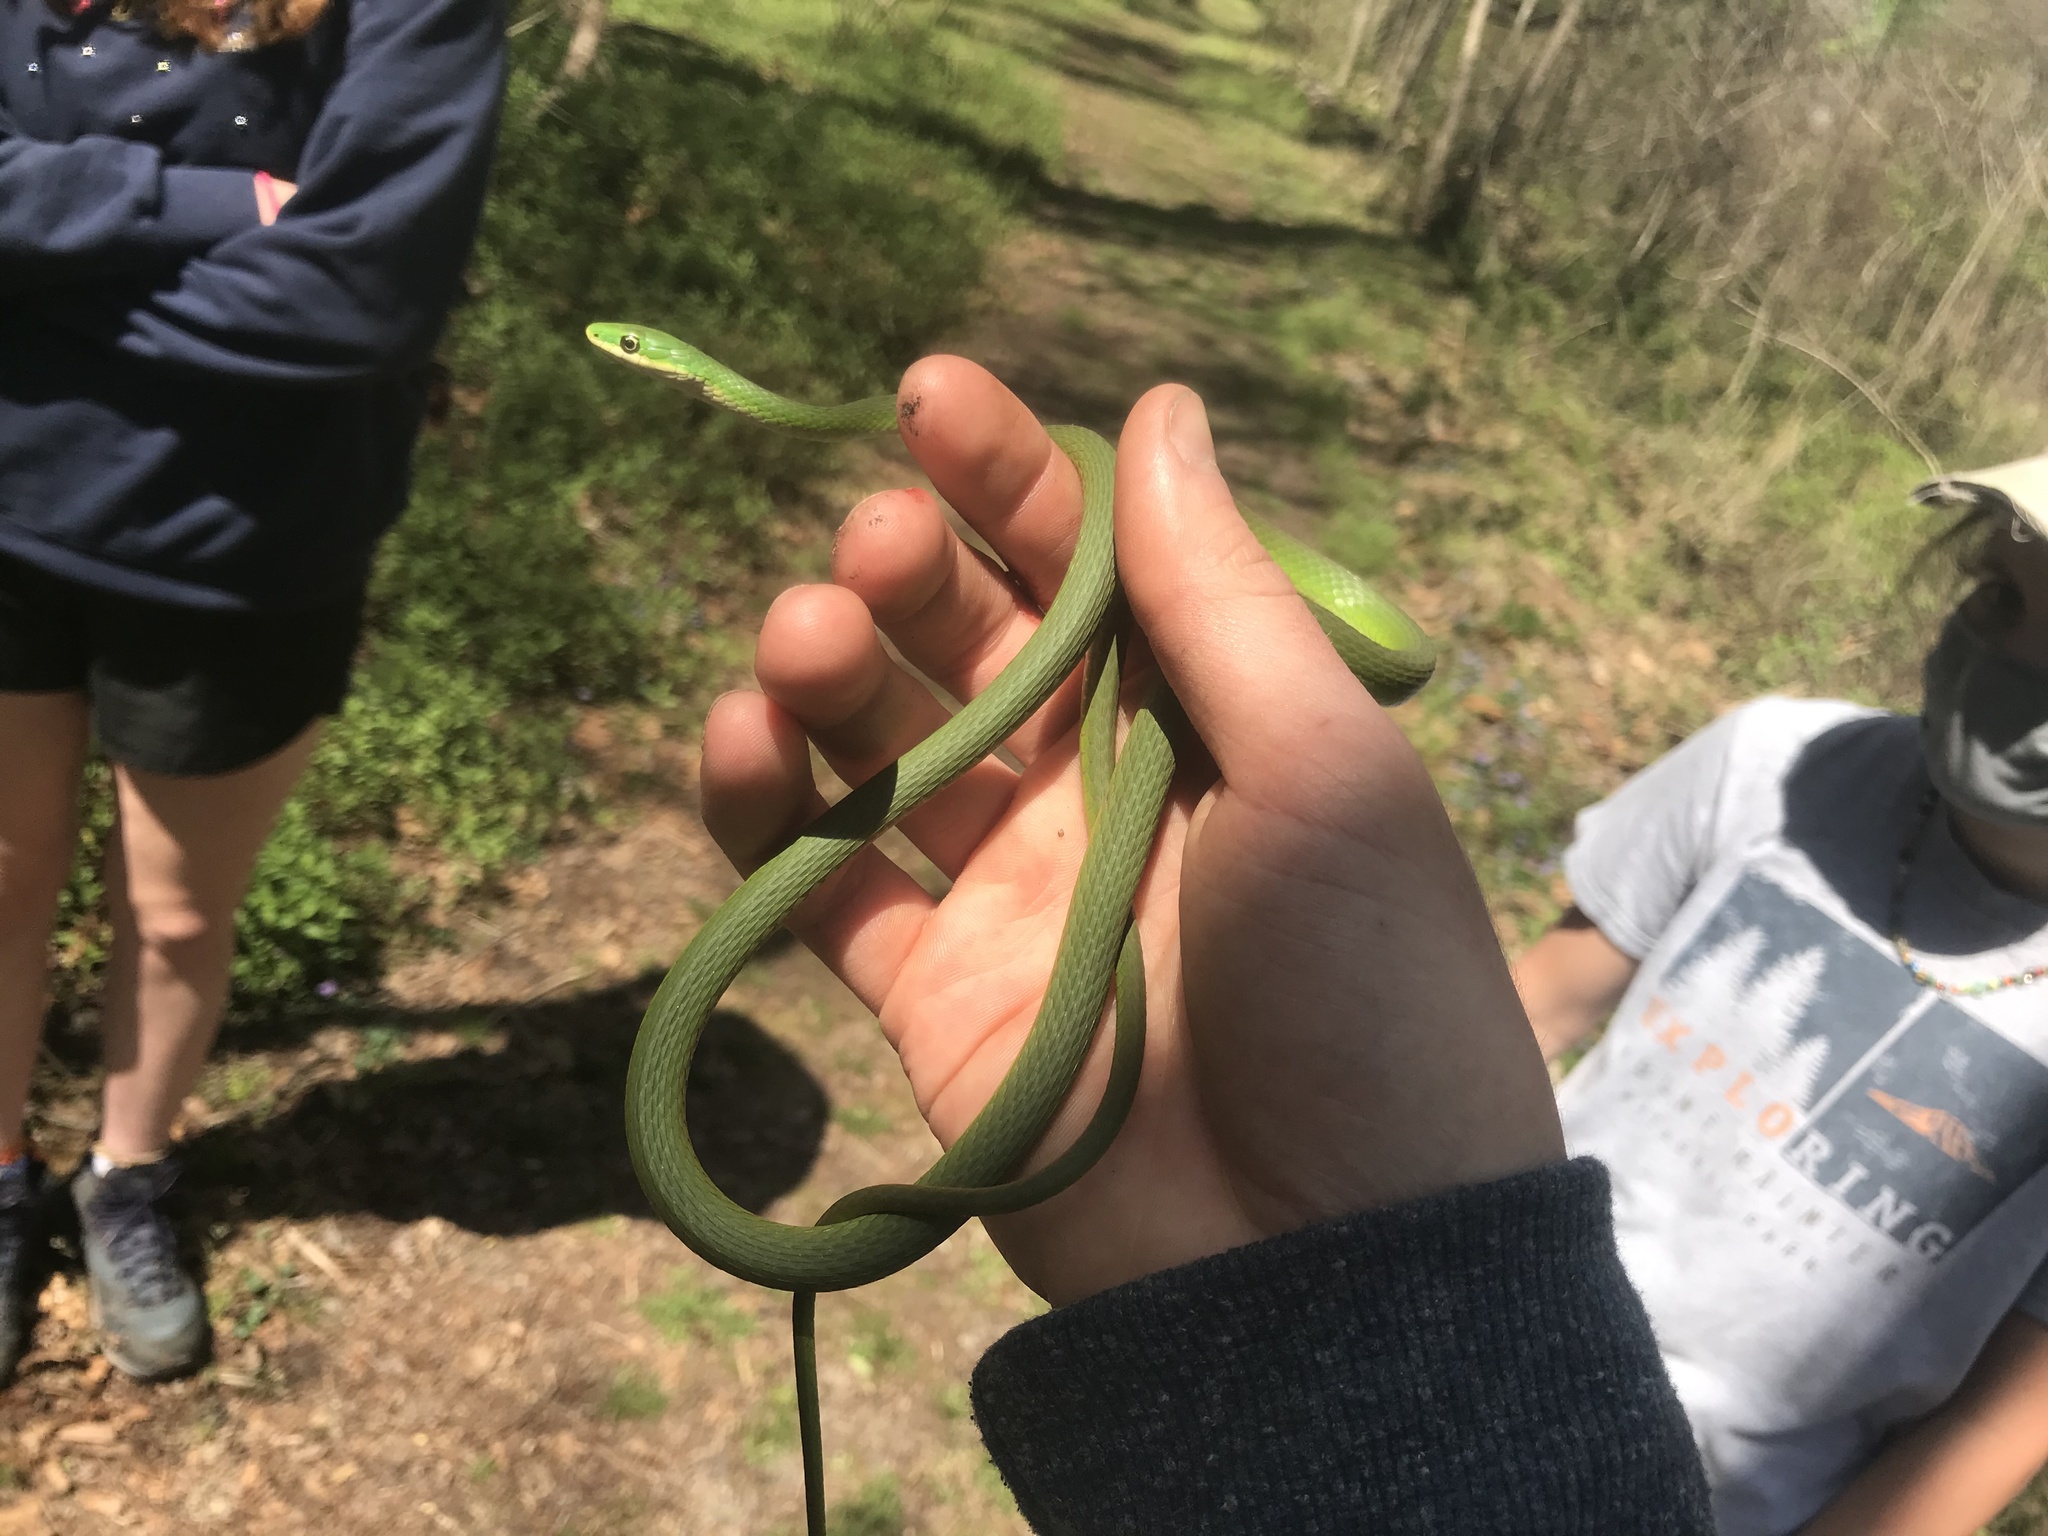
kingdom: Animalia
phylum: Chordata
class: Squamata
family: Colubridae
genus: Opheodrys
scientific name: Opheodrys aestivus
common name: Rough greensnake
